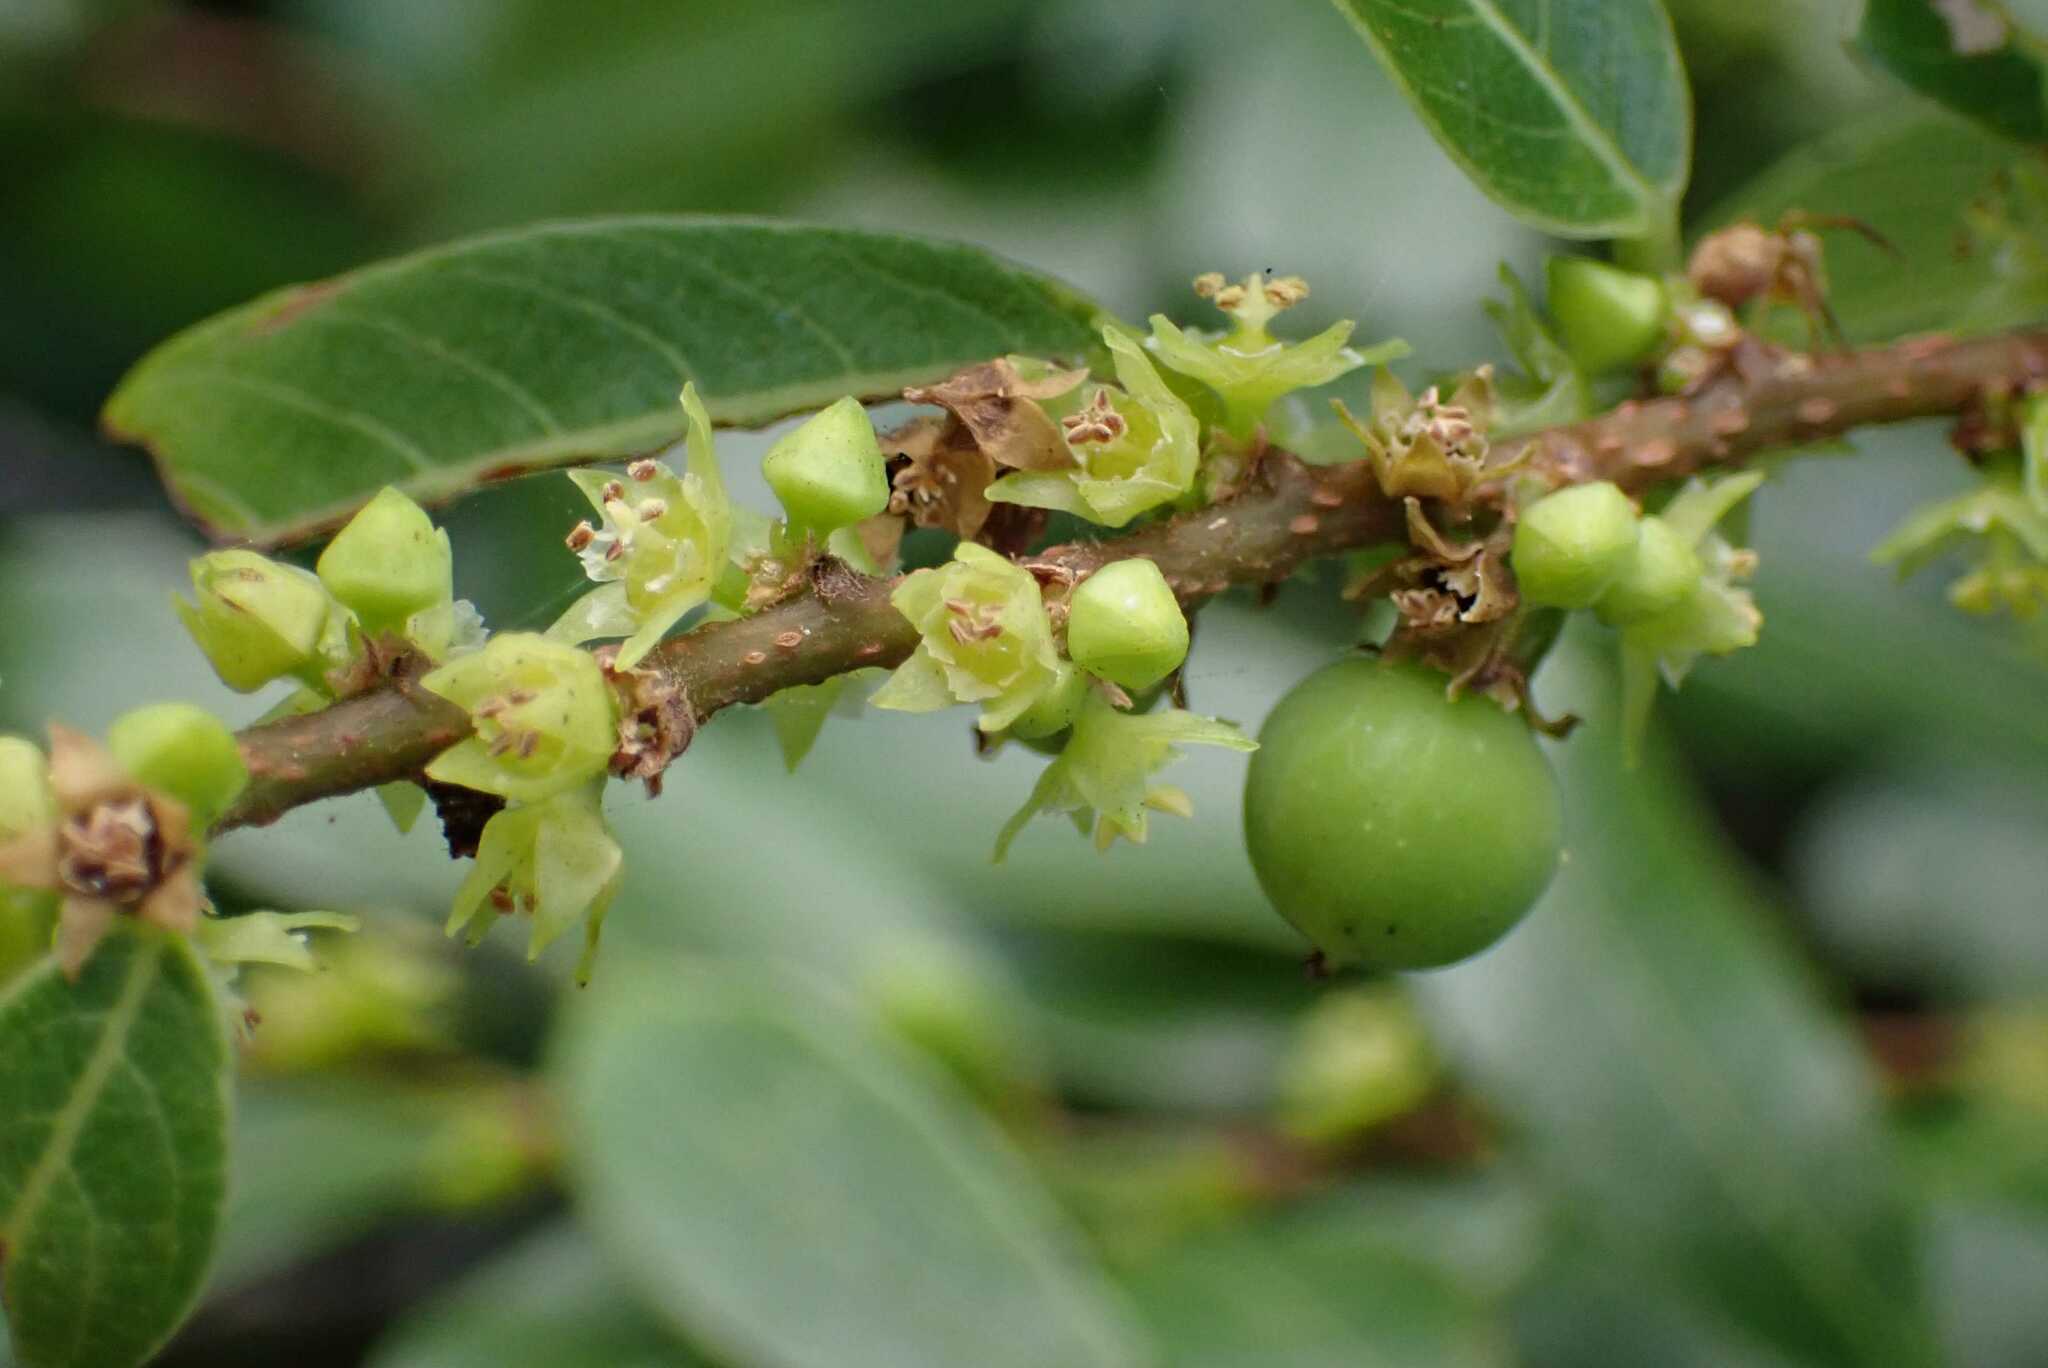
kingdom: Plantae
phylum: Tracheophyta
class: Magnoliopsida
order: Malpighiales
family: Phyllanthaceae
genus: Bridelia
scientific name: Bridelia cathartica
